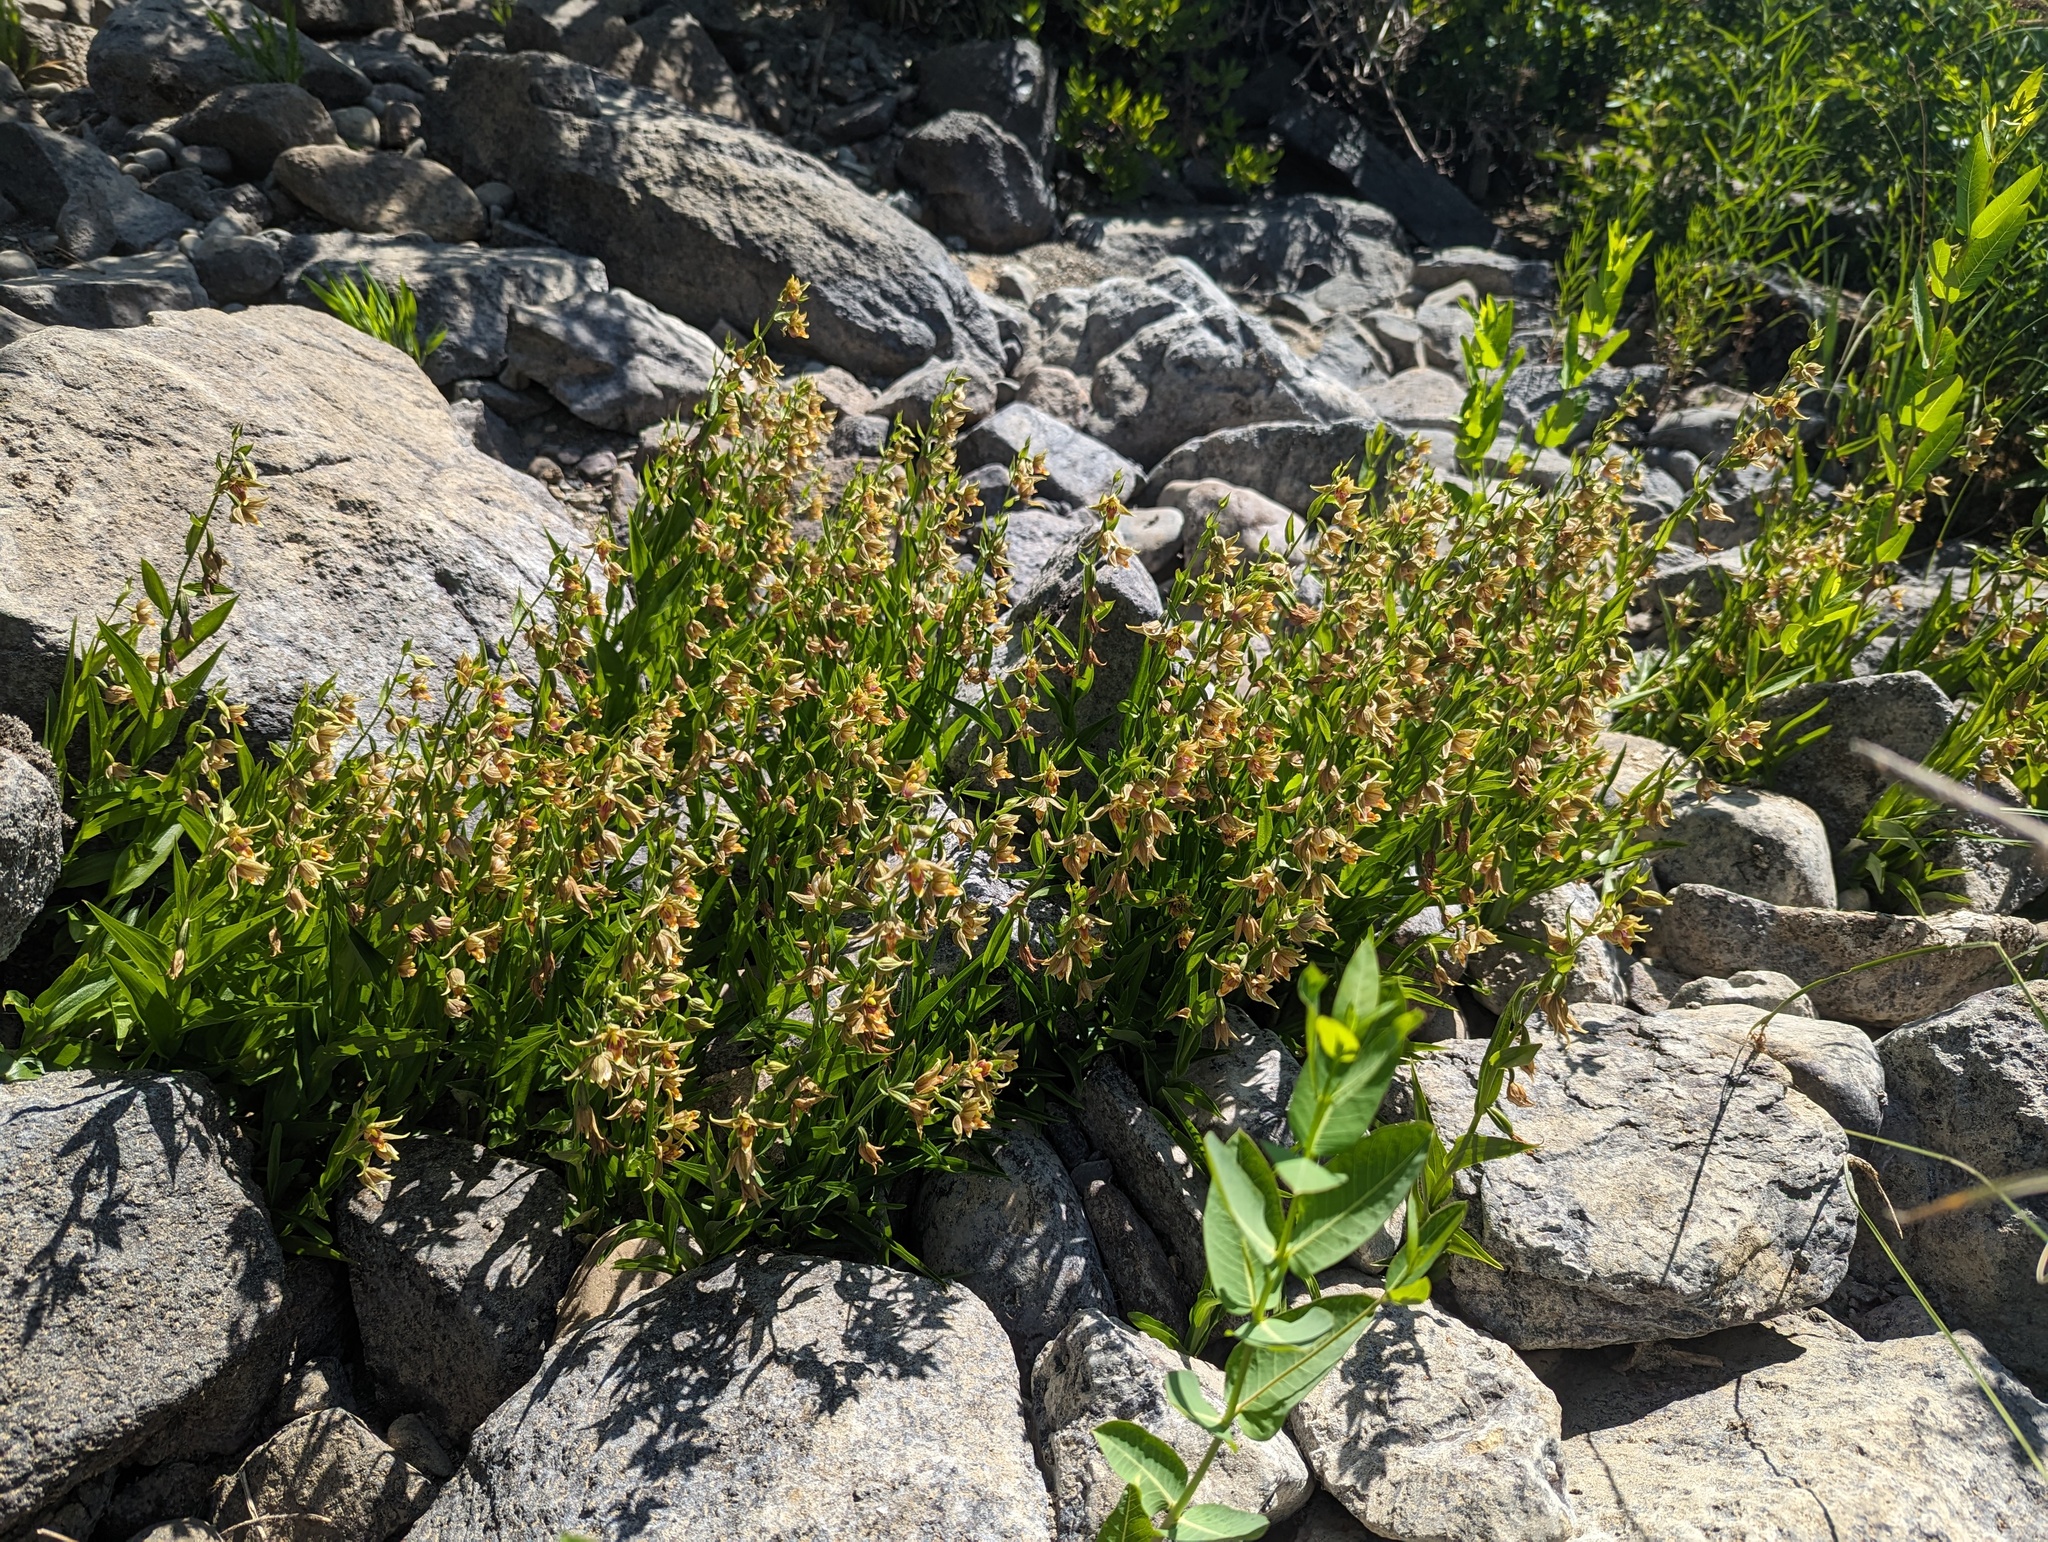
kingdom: Plantae
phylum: Tracheophyta
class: Liliopsida
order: Asparagales
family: Orchidaceae
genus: Epipactis
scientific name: Epipactis gigantea
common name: Chatterbox
